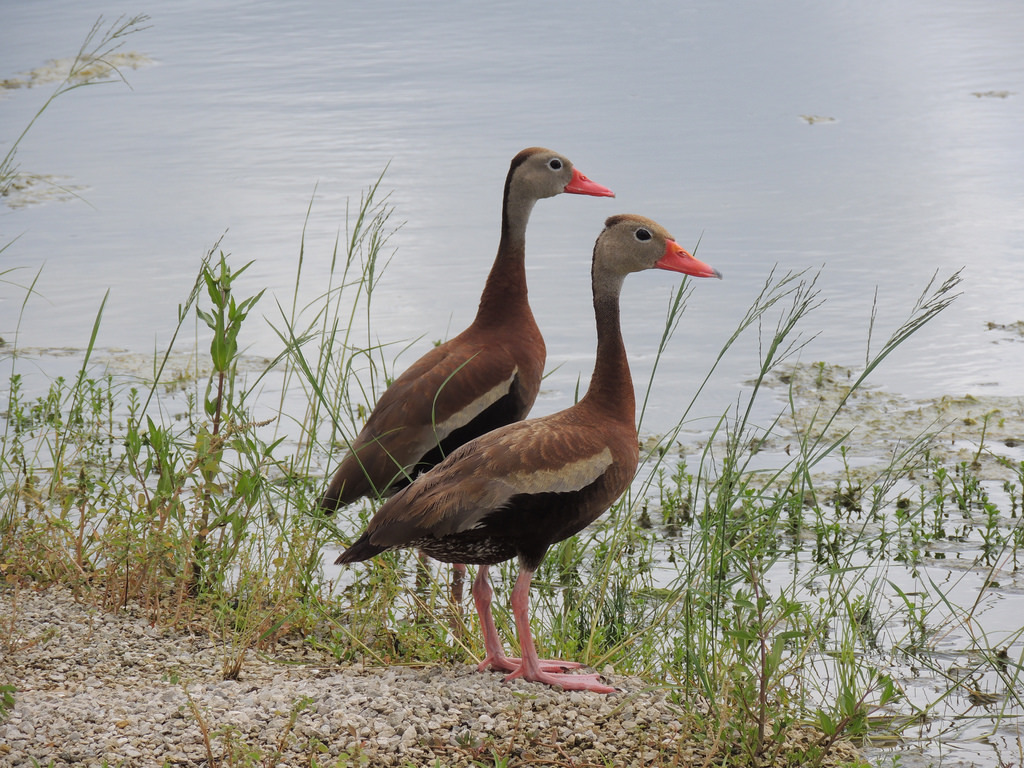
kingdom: Animalia
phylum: Chordata
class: Aves
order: Anseriformes
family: Anatidae
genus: Dendrocygna
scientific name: Dendrocygna autumnalis
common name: Black-bellied whistling duck
